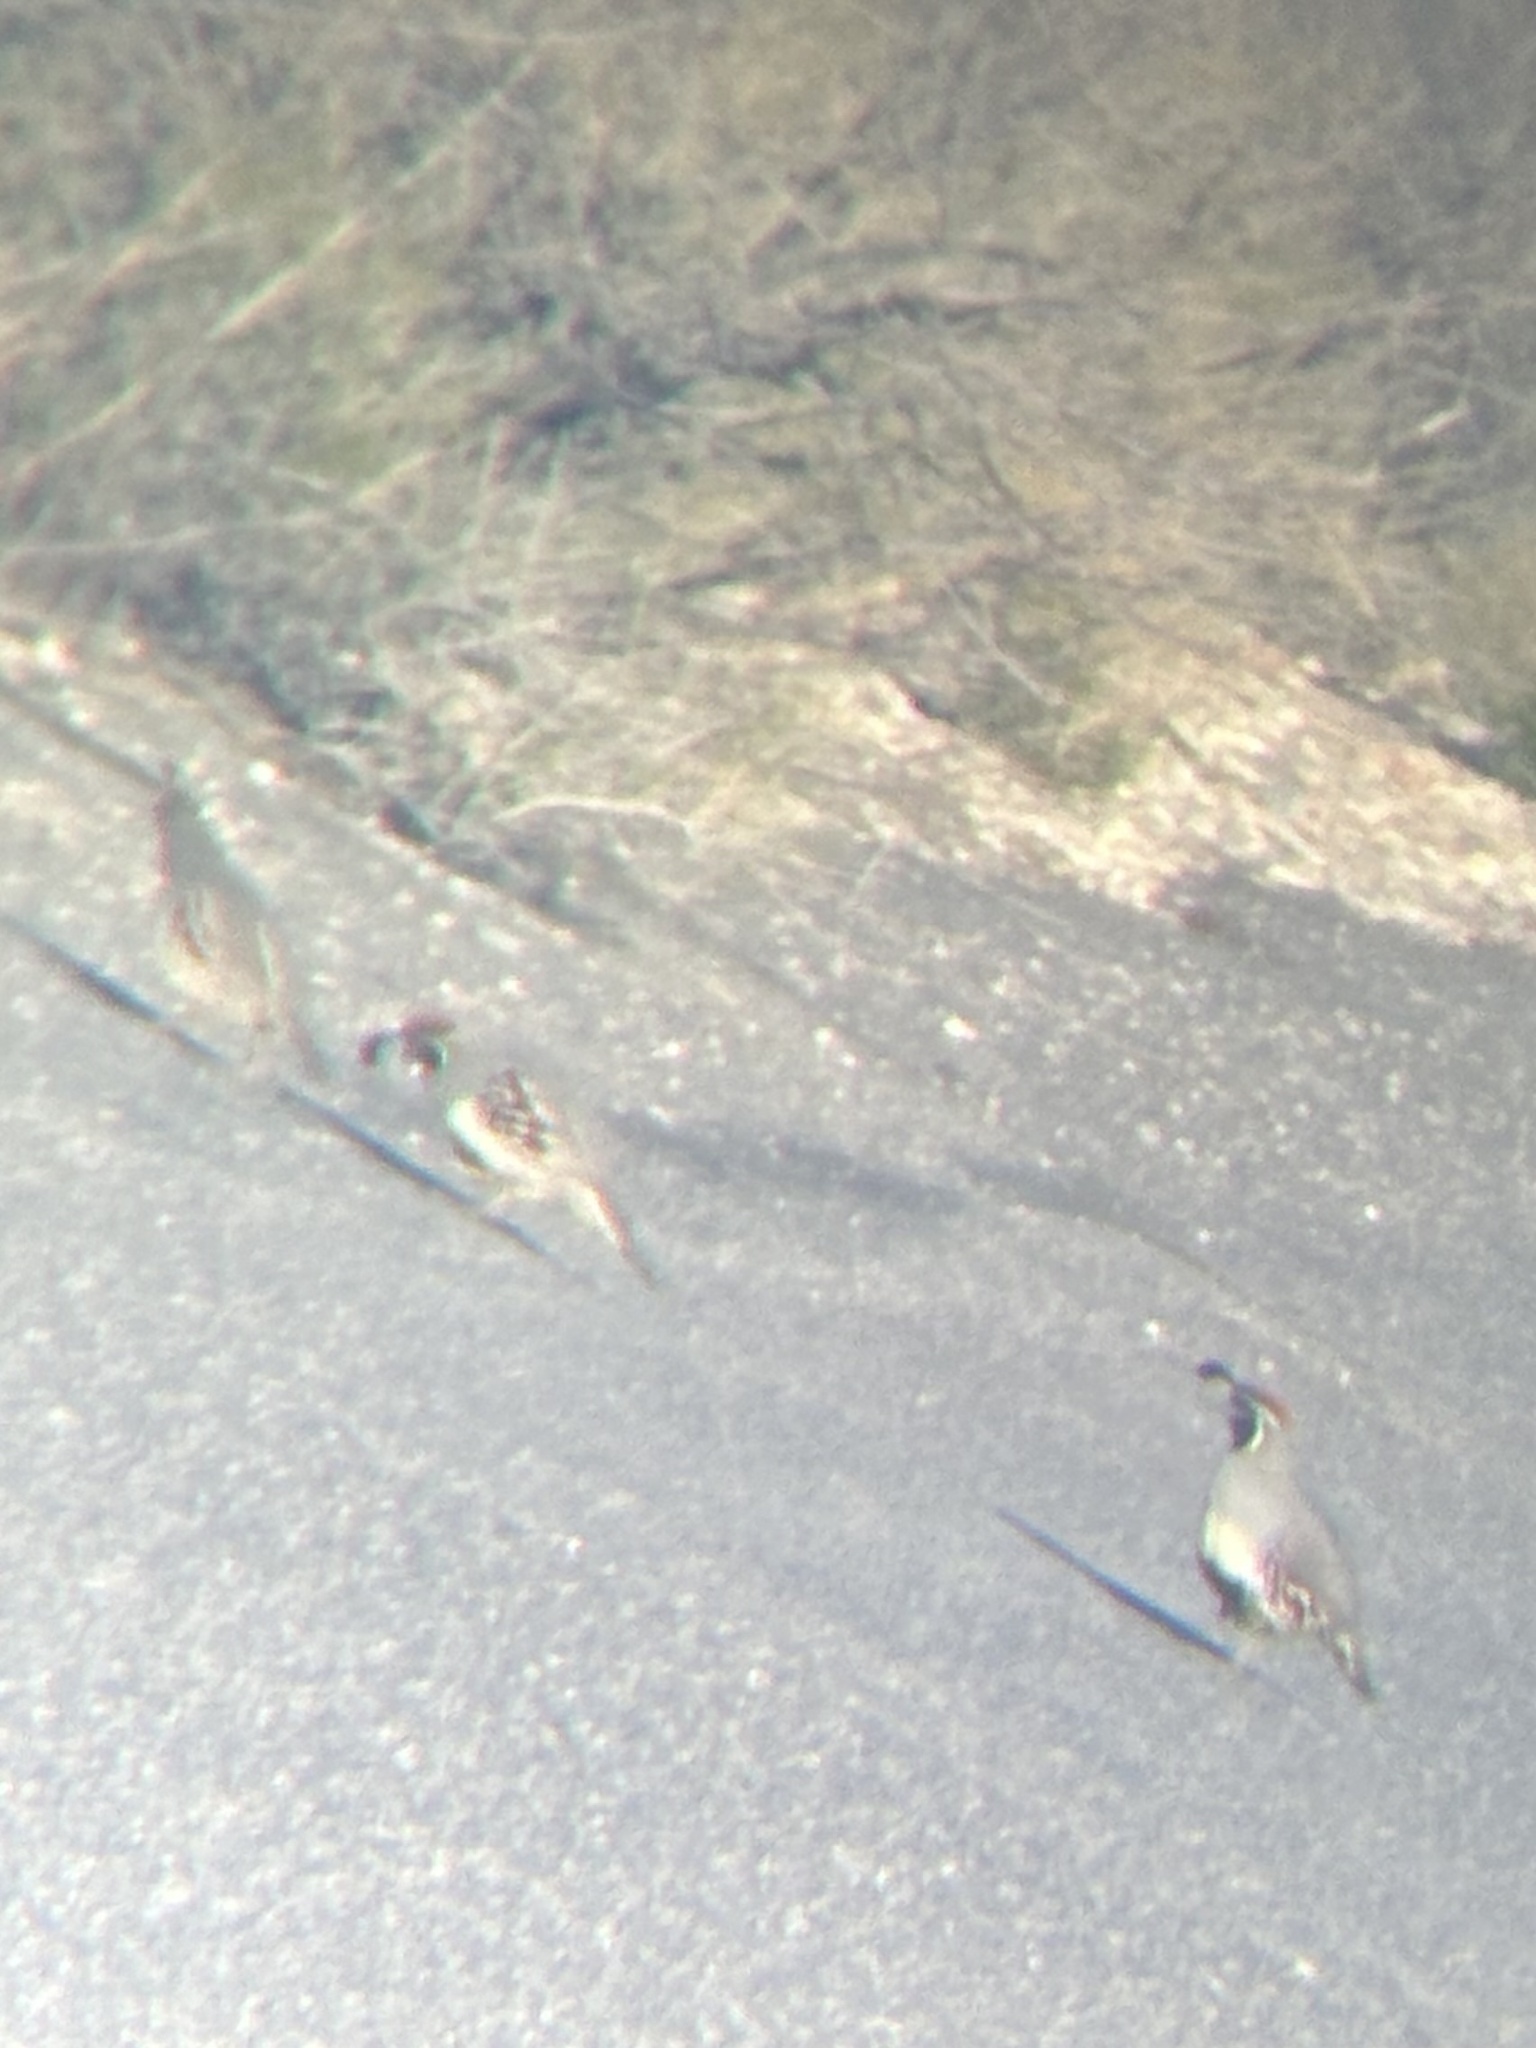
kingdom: Animalia
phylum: Chordata
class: Aves
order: Galliformes
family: Odontophoridae
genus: Callipepla
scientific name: Callipepla gambelii
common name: Gambel's quail
